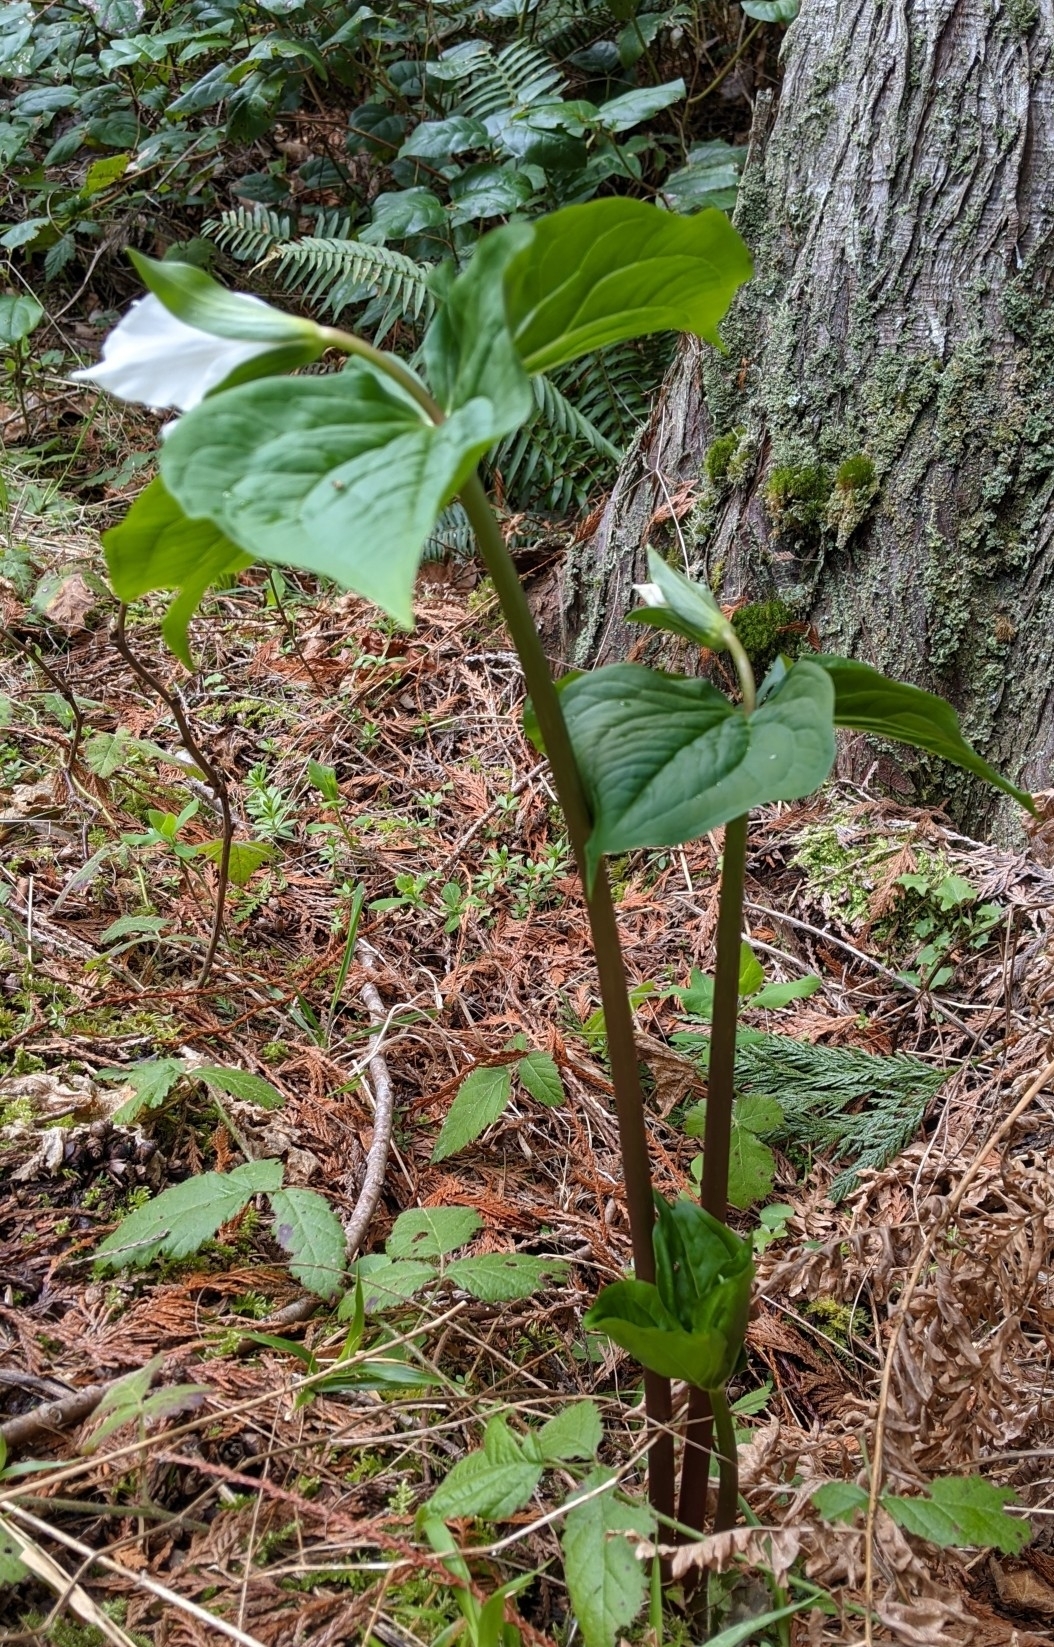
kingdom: Plantae
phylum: Tracheophyta
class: Liliopsida
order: Liliales
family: Melanthiaceae
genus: Trillium
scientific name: Trillium ovatum
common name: Pacific trillium
